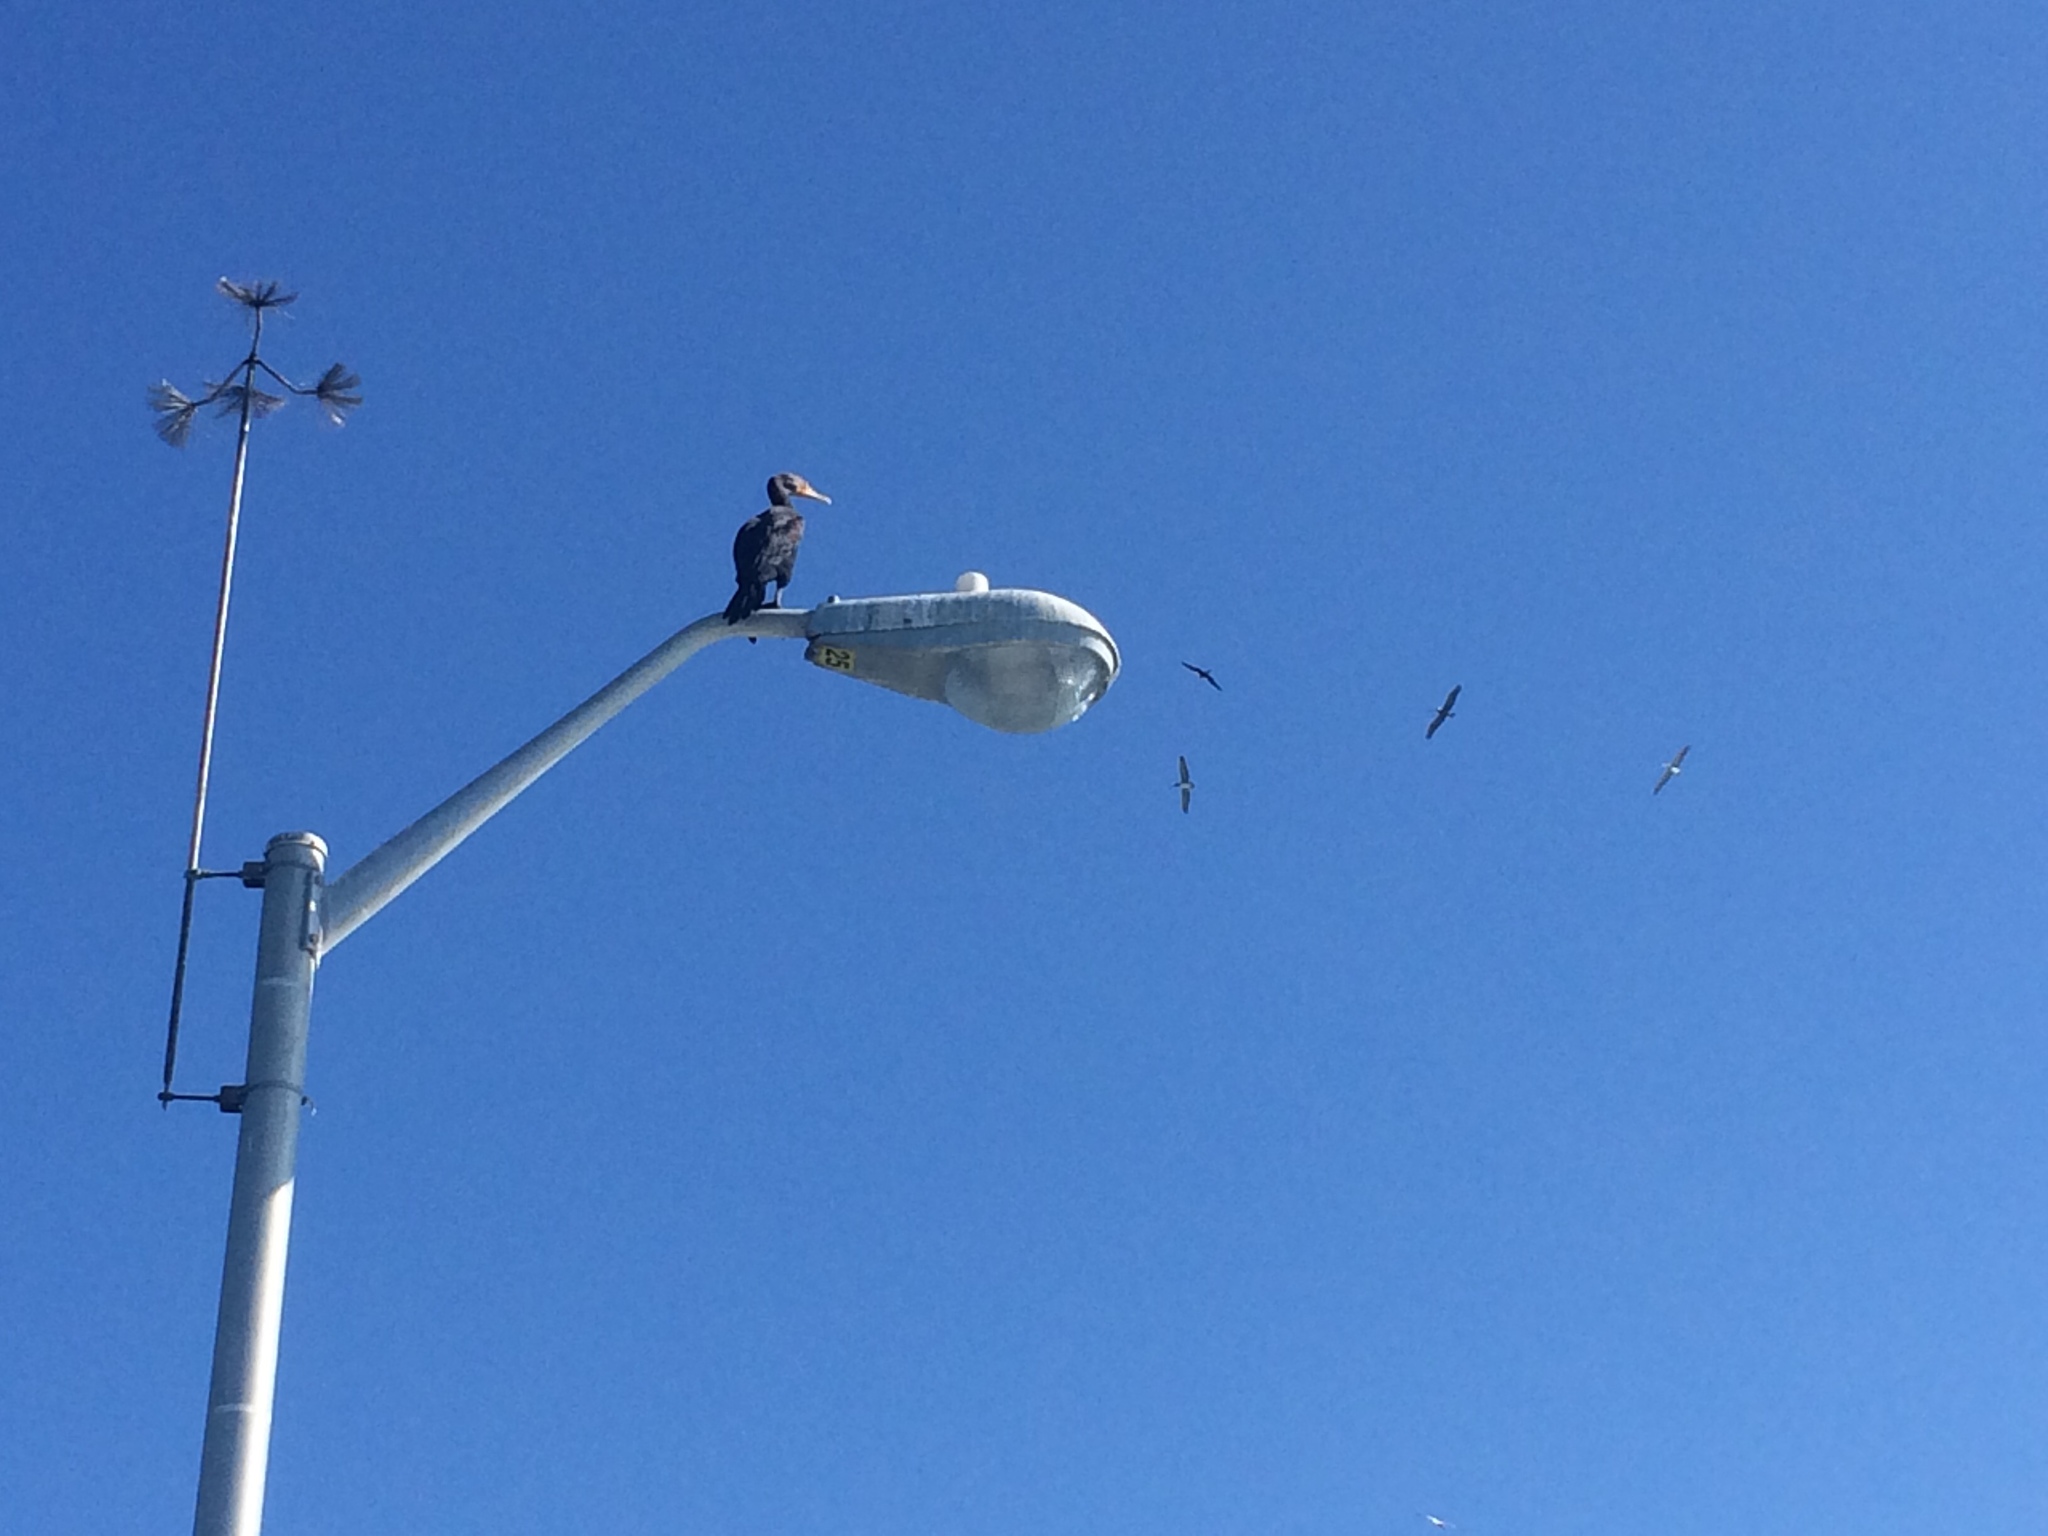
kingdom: Animalia
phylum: Chordata
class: Aves
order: Suliformes
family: Phalacrocoracidae
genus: Phalacrocorax
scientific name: Phalacrocorax auritus
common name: Double-crested cormorant
